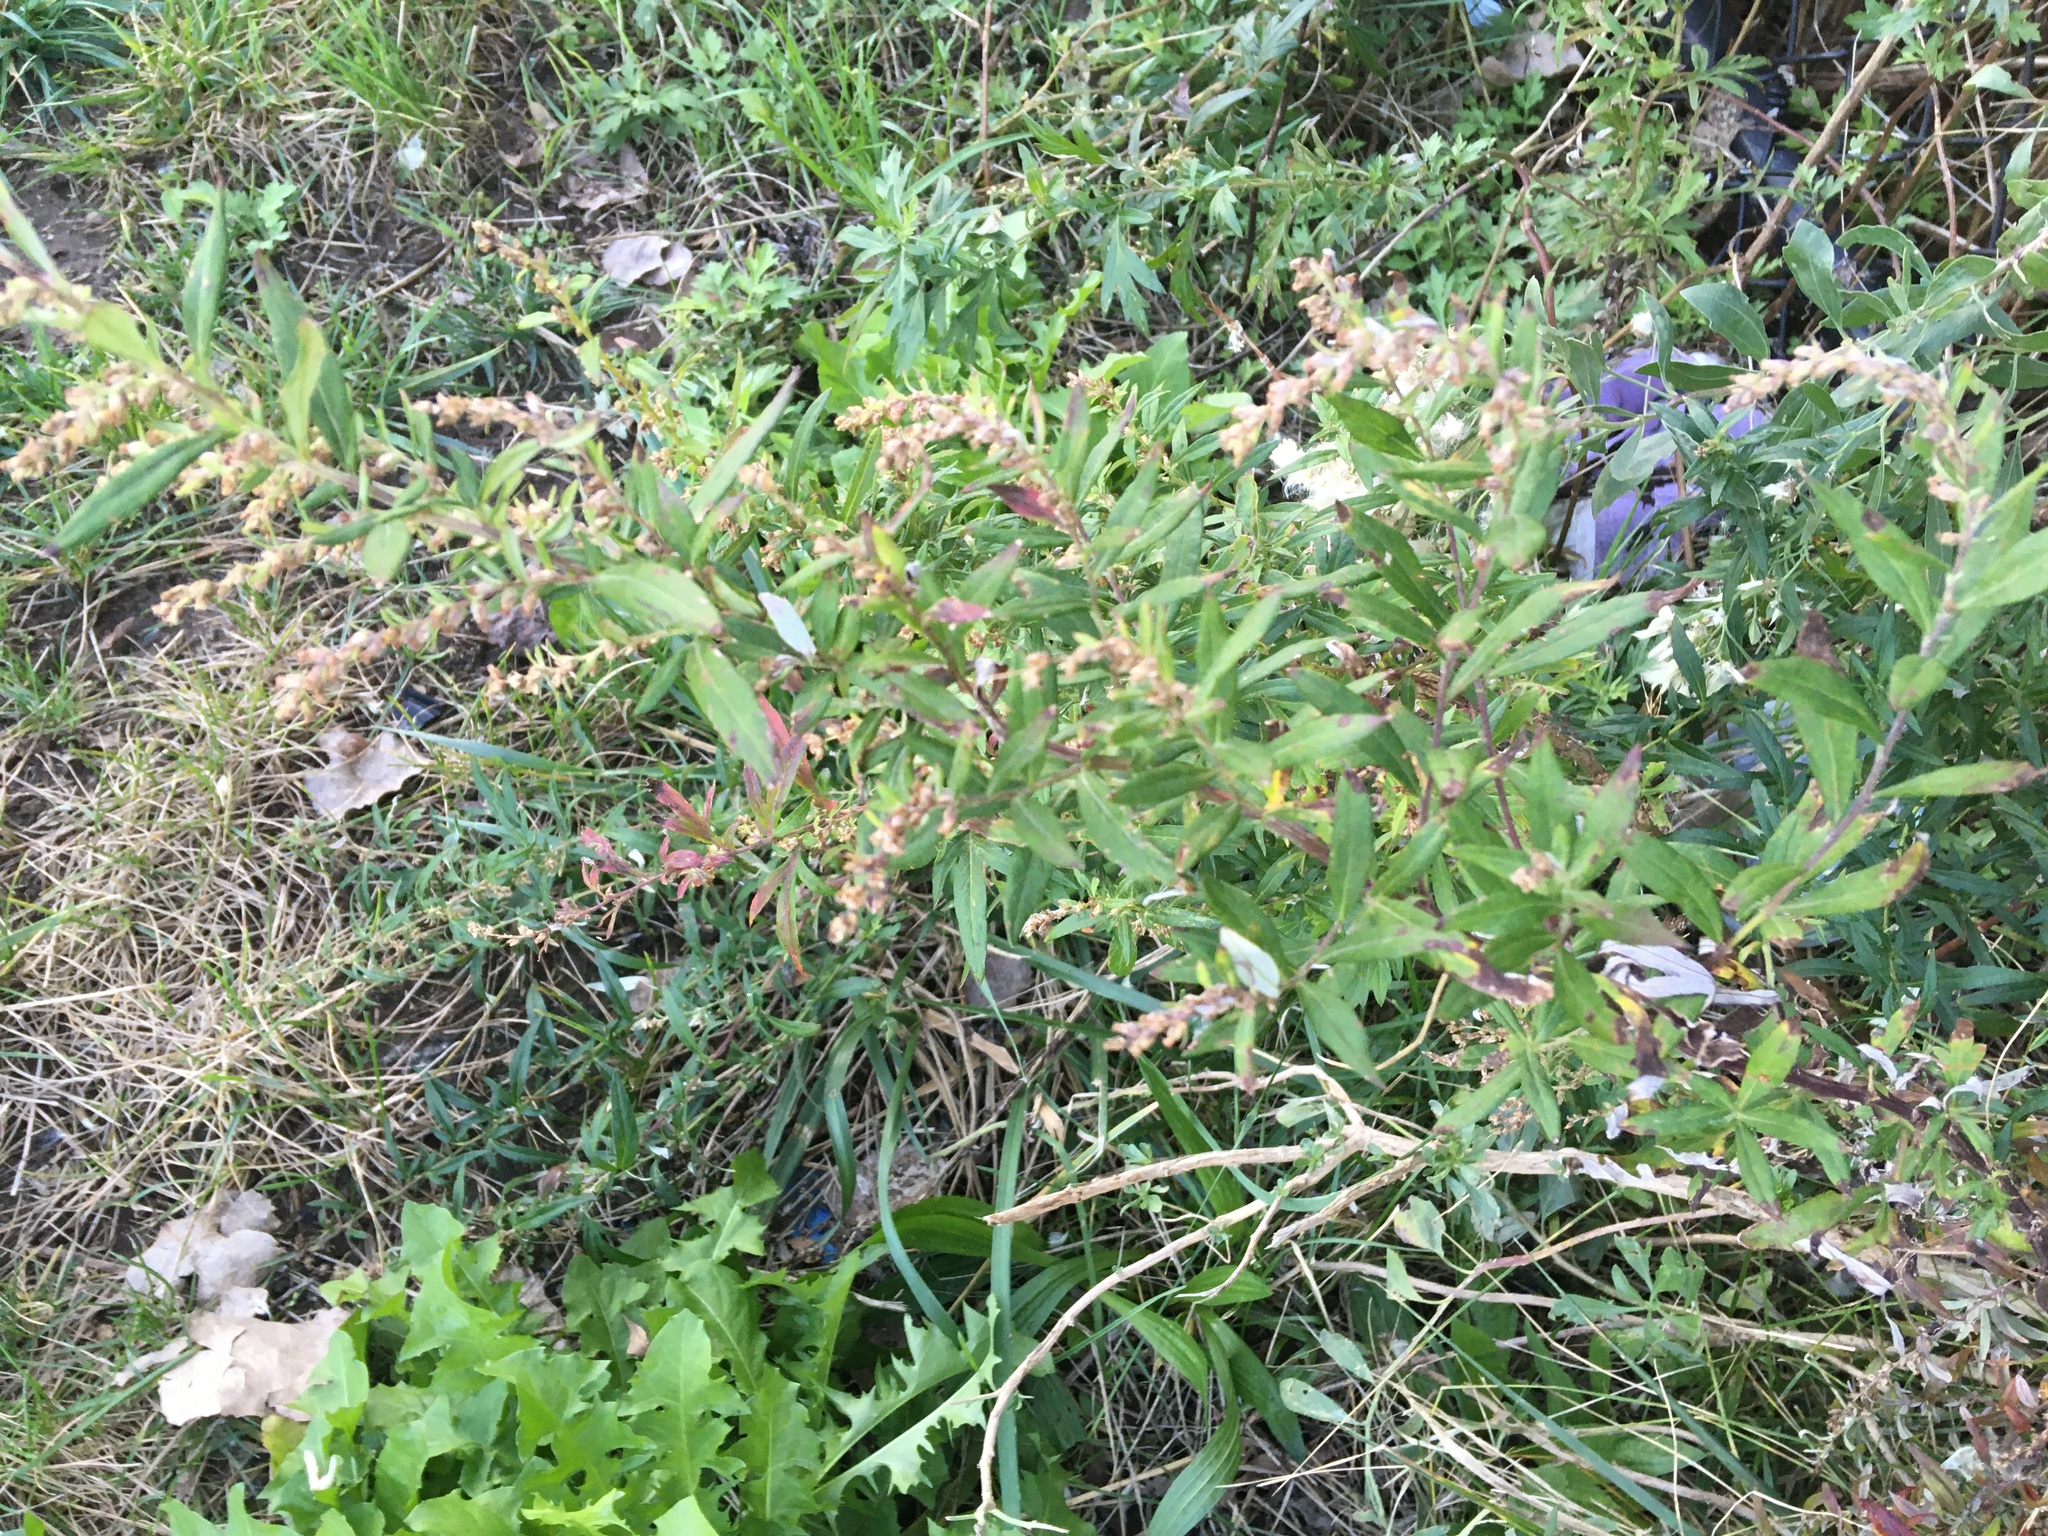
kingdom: Plantae
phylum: Tracheophyta
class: Magnoliopsida
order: Asterales
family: Asteraceae
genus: Artemisia
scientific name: Artemisia vulgaris
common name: Mugwort
